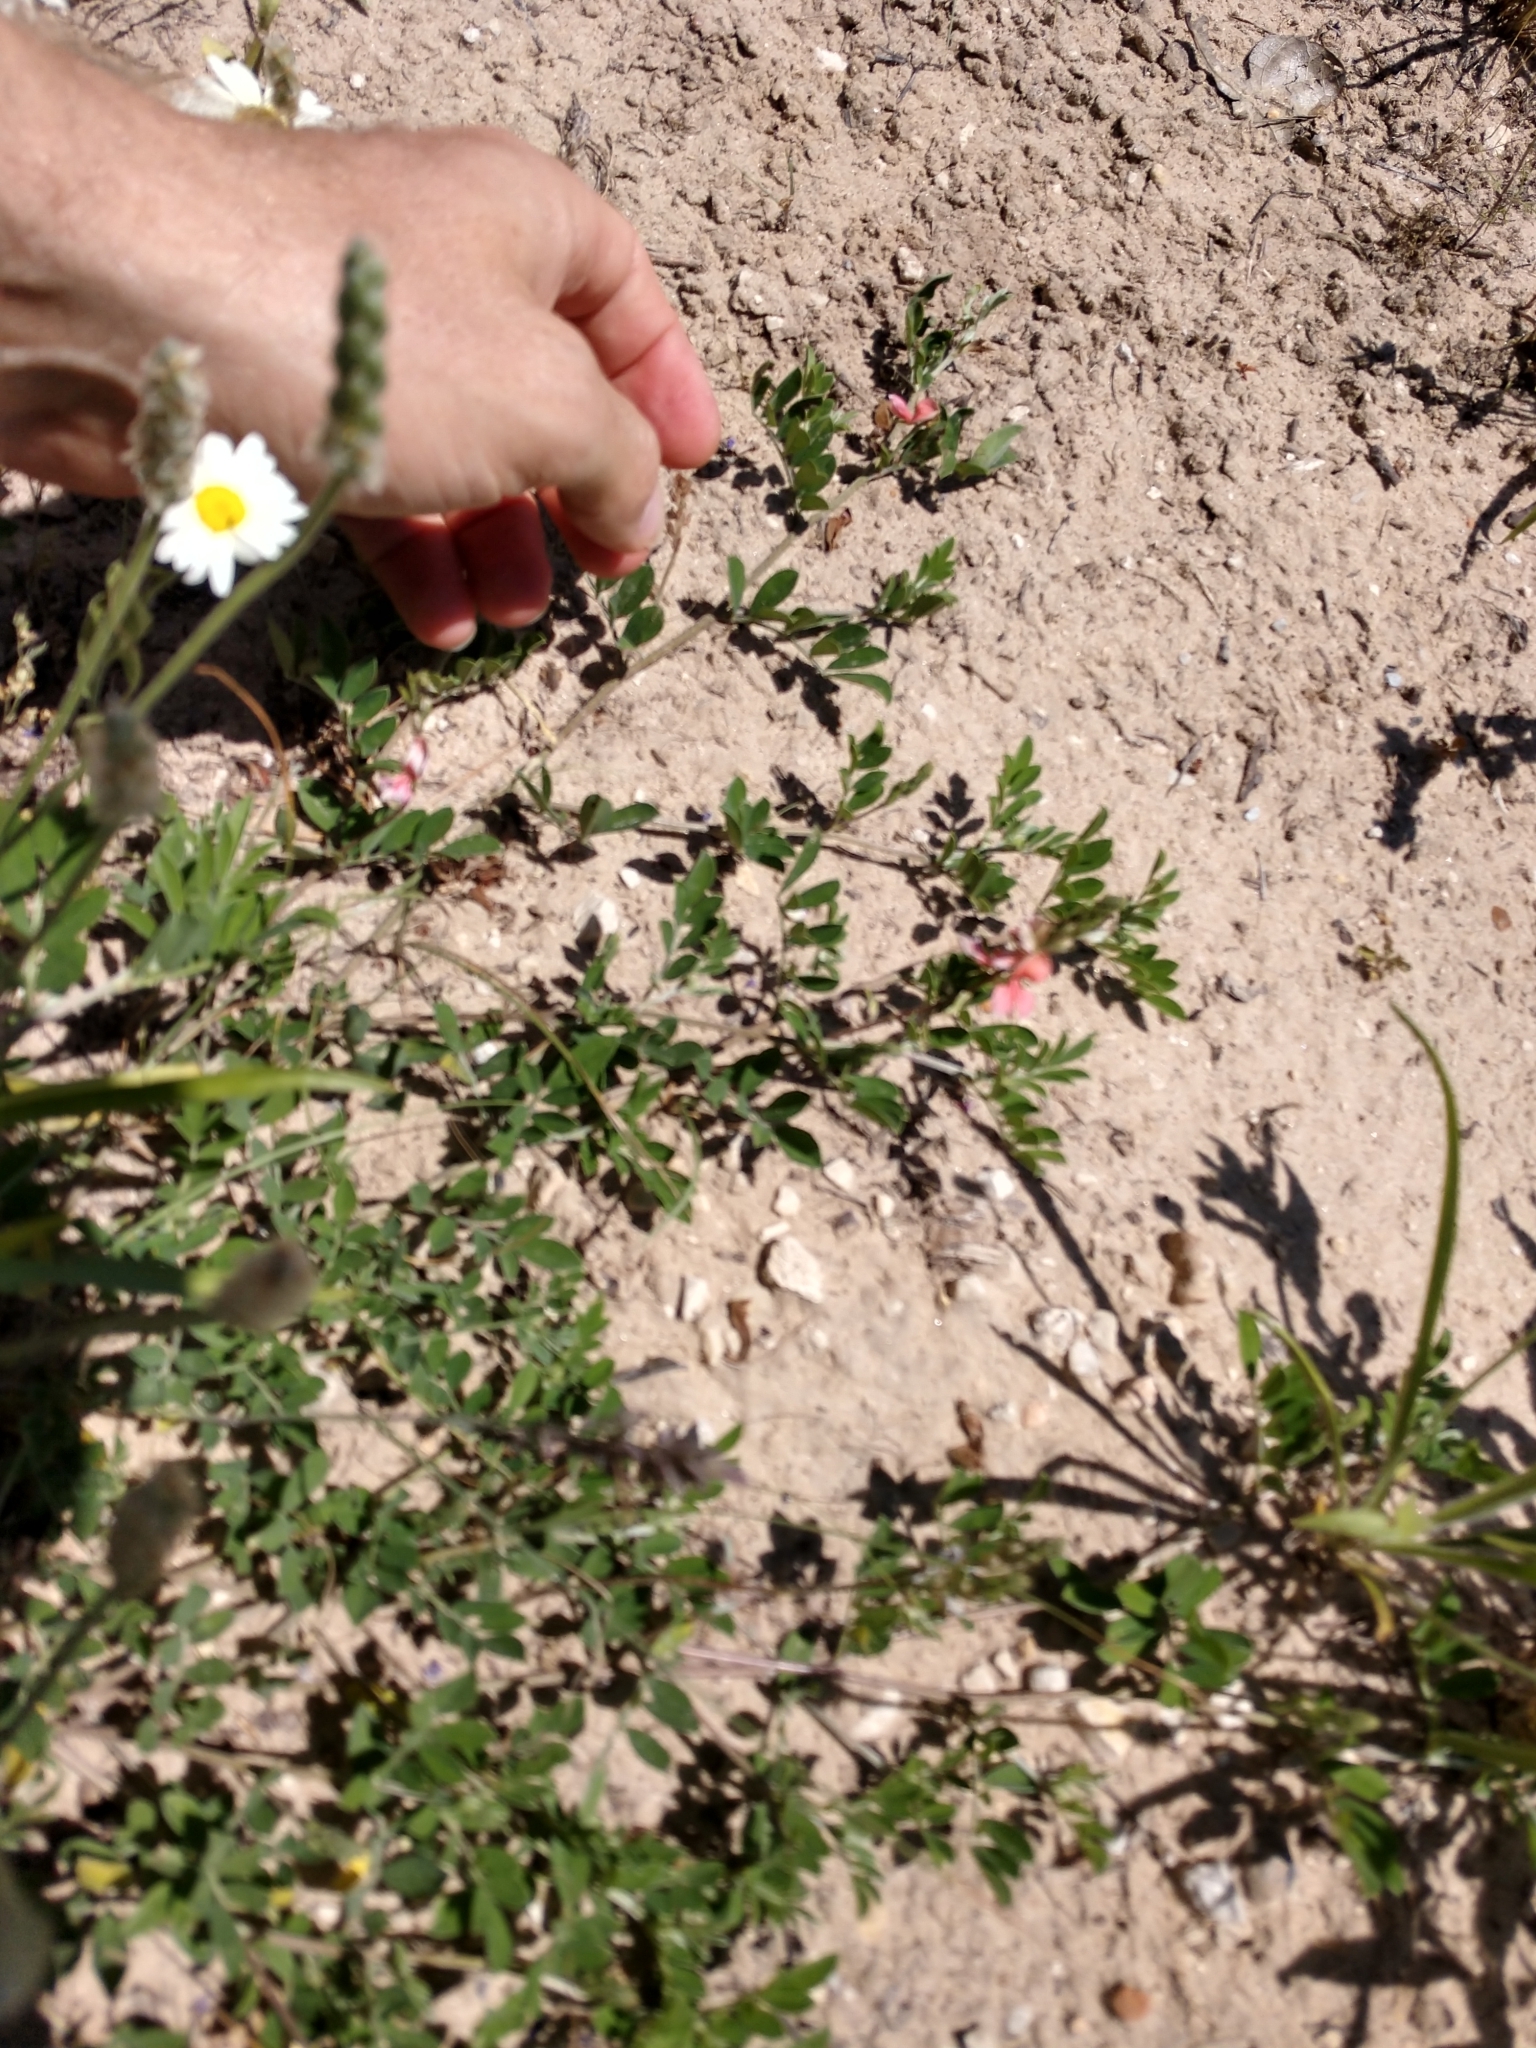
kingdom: Plantae
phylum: Tracheophyta
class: Magnoliopsida
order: Fabales
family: Fabaceae
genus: Indigofera
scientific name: Indigofera miniata
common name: Coast indigo
